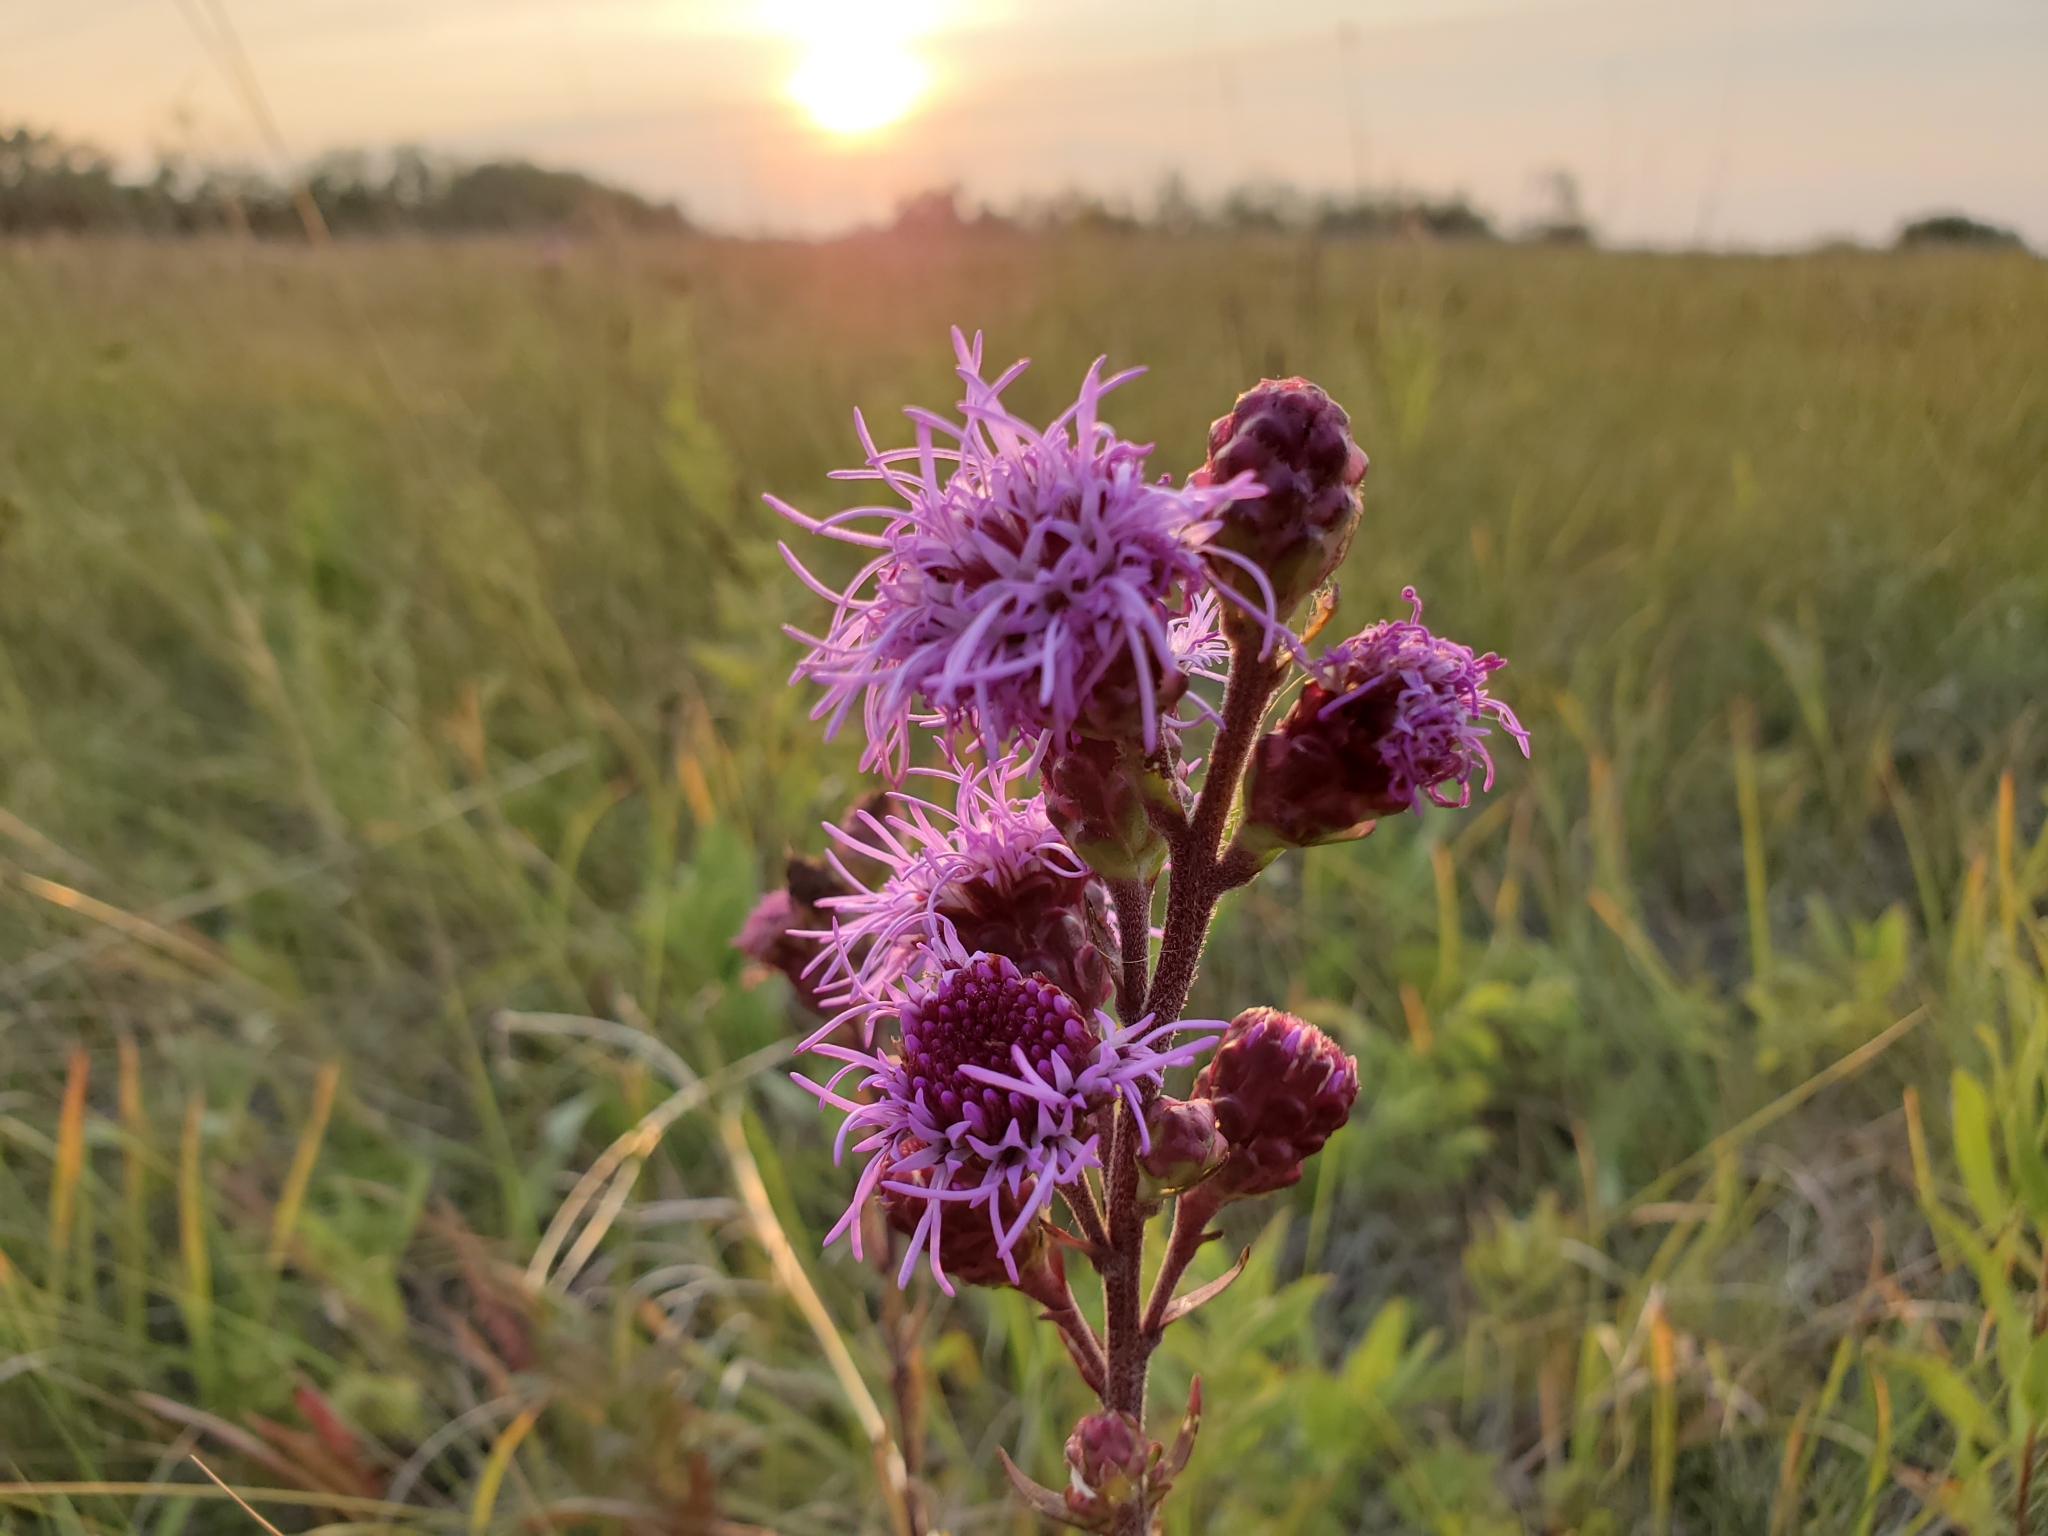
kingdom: Plantae
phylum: Tracheophyta
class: Magnoliopsida
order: Asterales
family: Asteraceae
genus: Liatris
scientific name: Liatris ligulistylis
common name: Northern plains gayfeather
